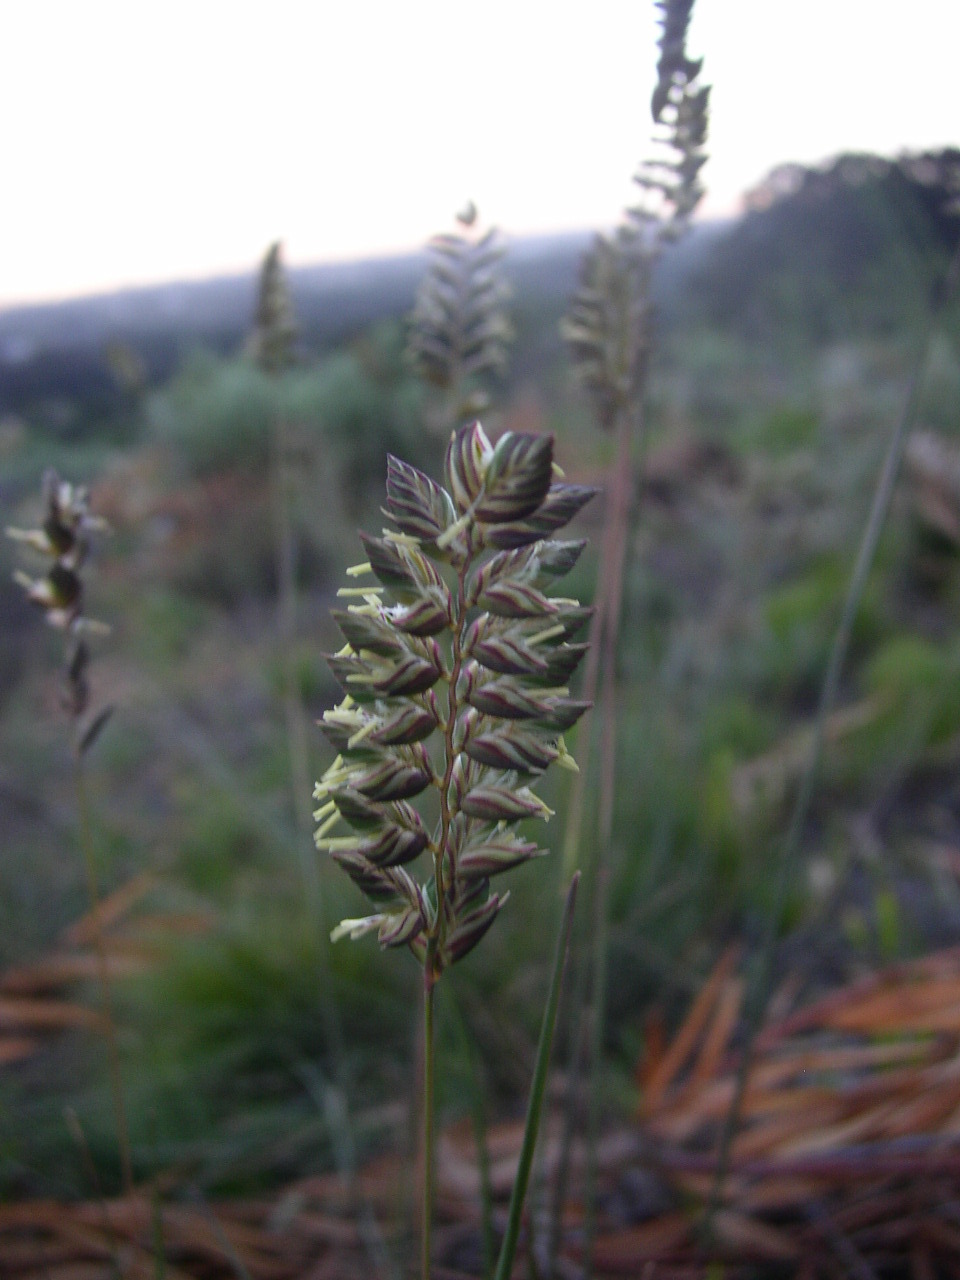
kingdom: Plantae
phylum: Tracheophyta
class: Liliopsida
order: Poales
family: Poaceae
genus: Tribolium
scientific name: Tribolium uniolae
